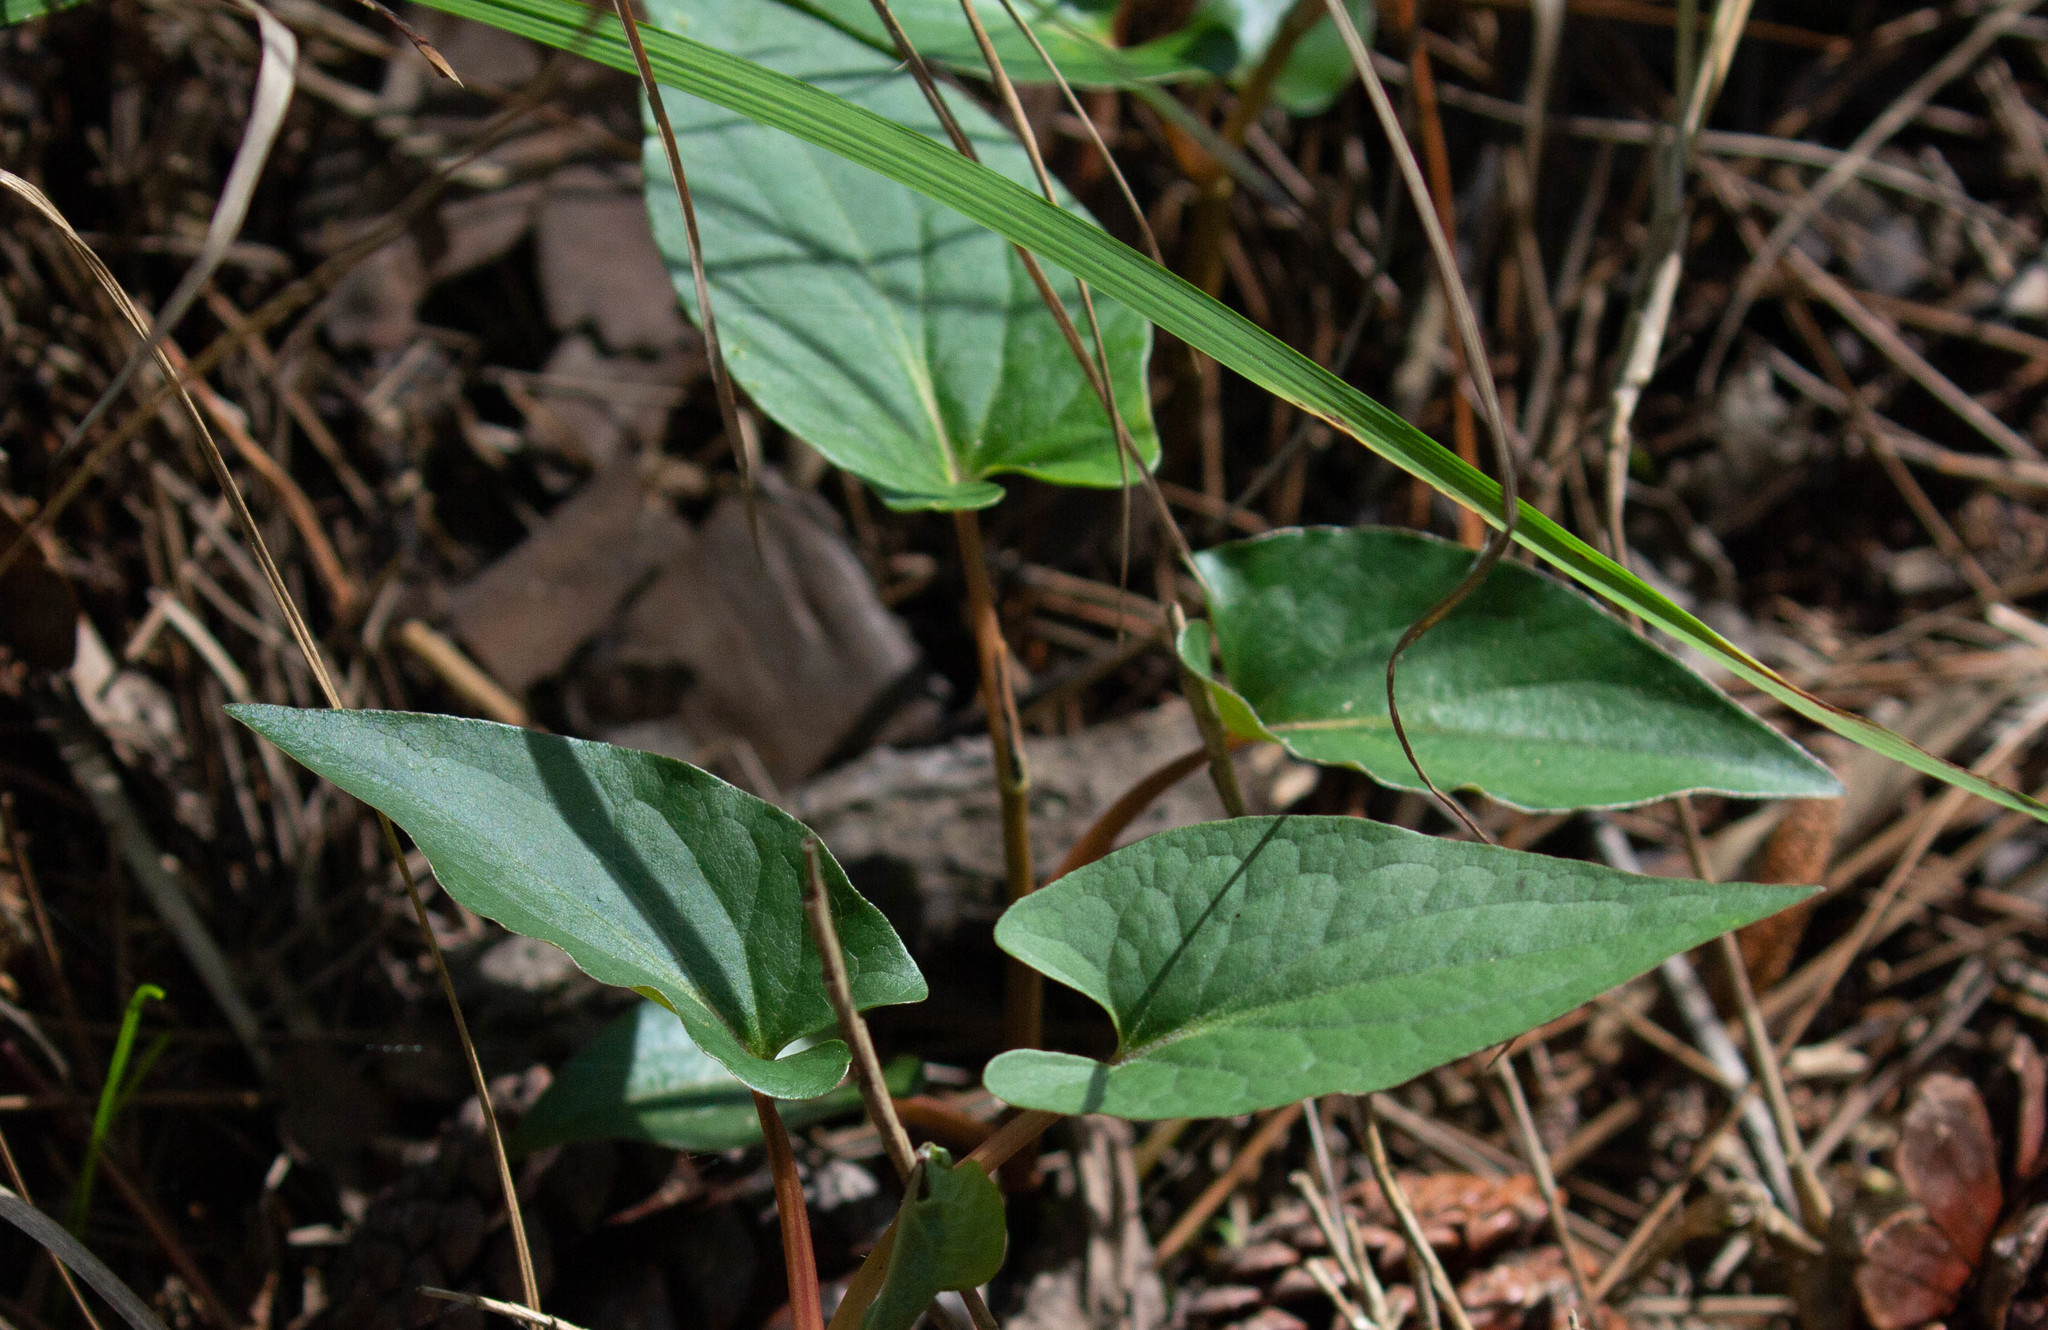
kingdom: Plantae
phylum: Tracheophyta
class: Magnoliopsida
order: Piperales
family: Saururaceae
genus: Saururus
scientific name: Saururus cernuus
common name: Lizard's-tail
